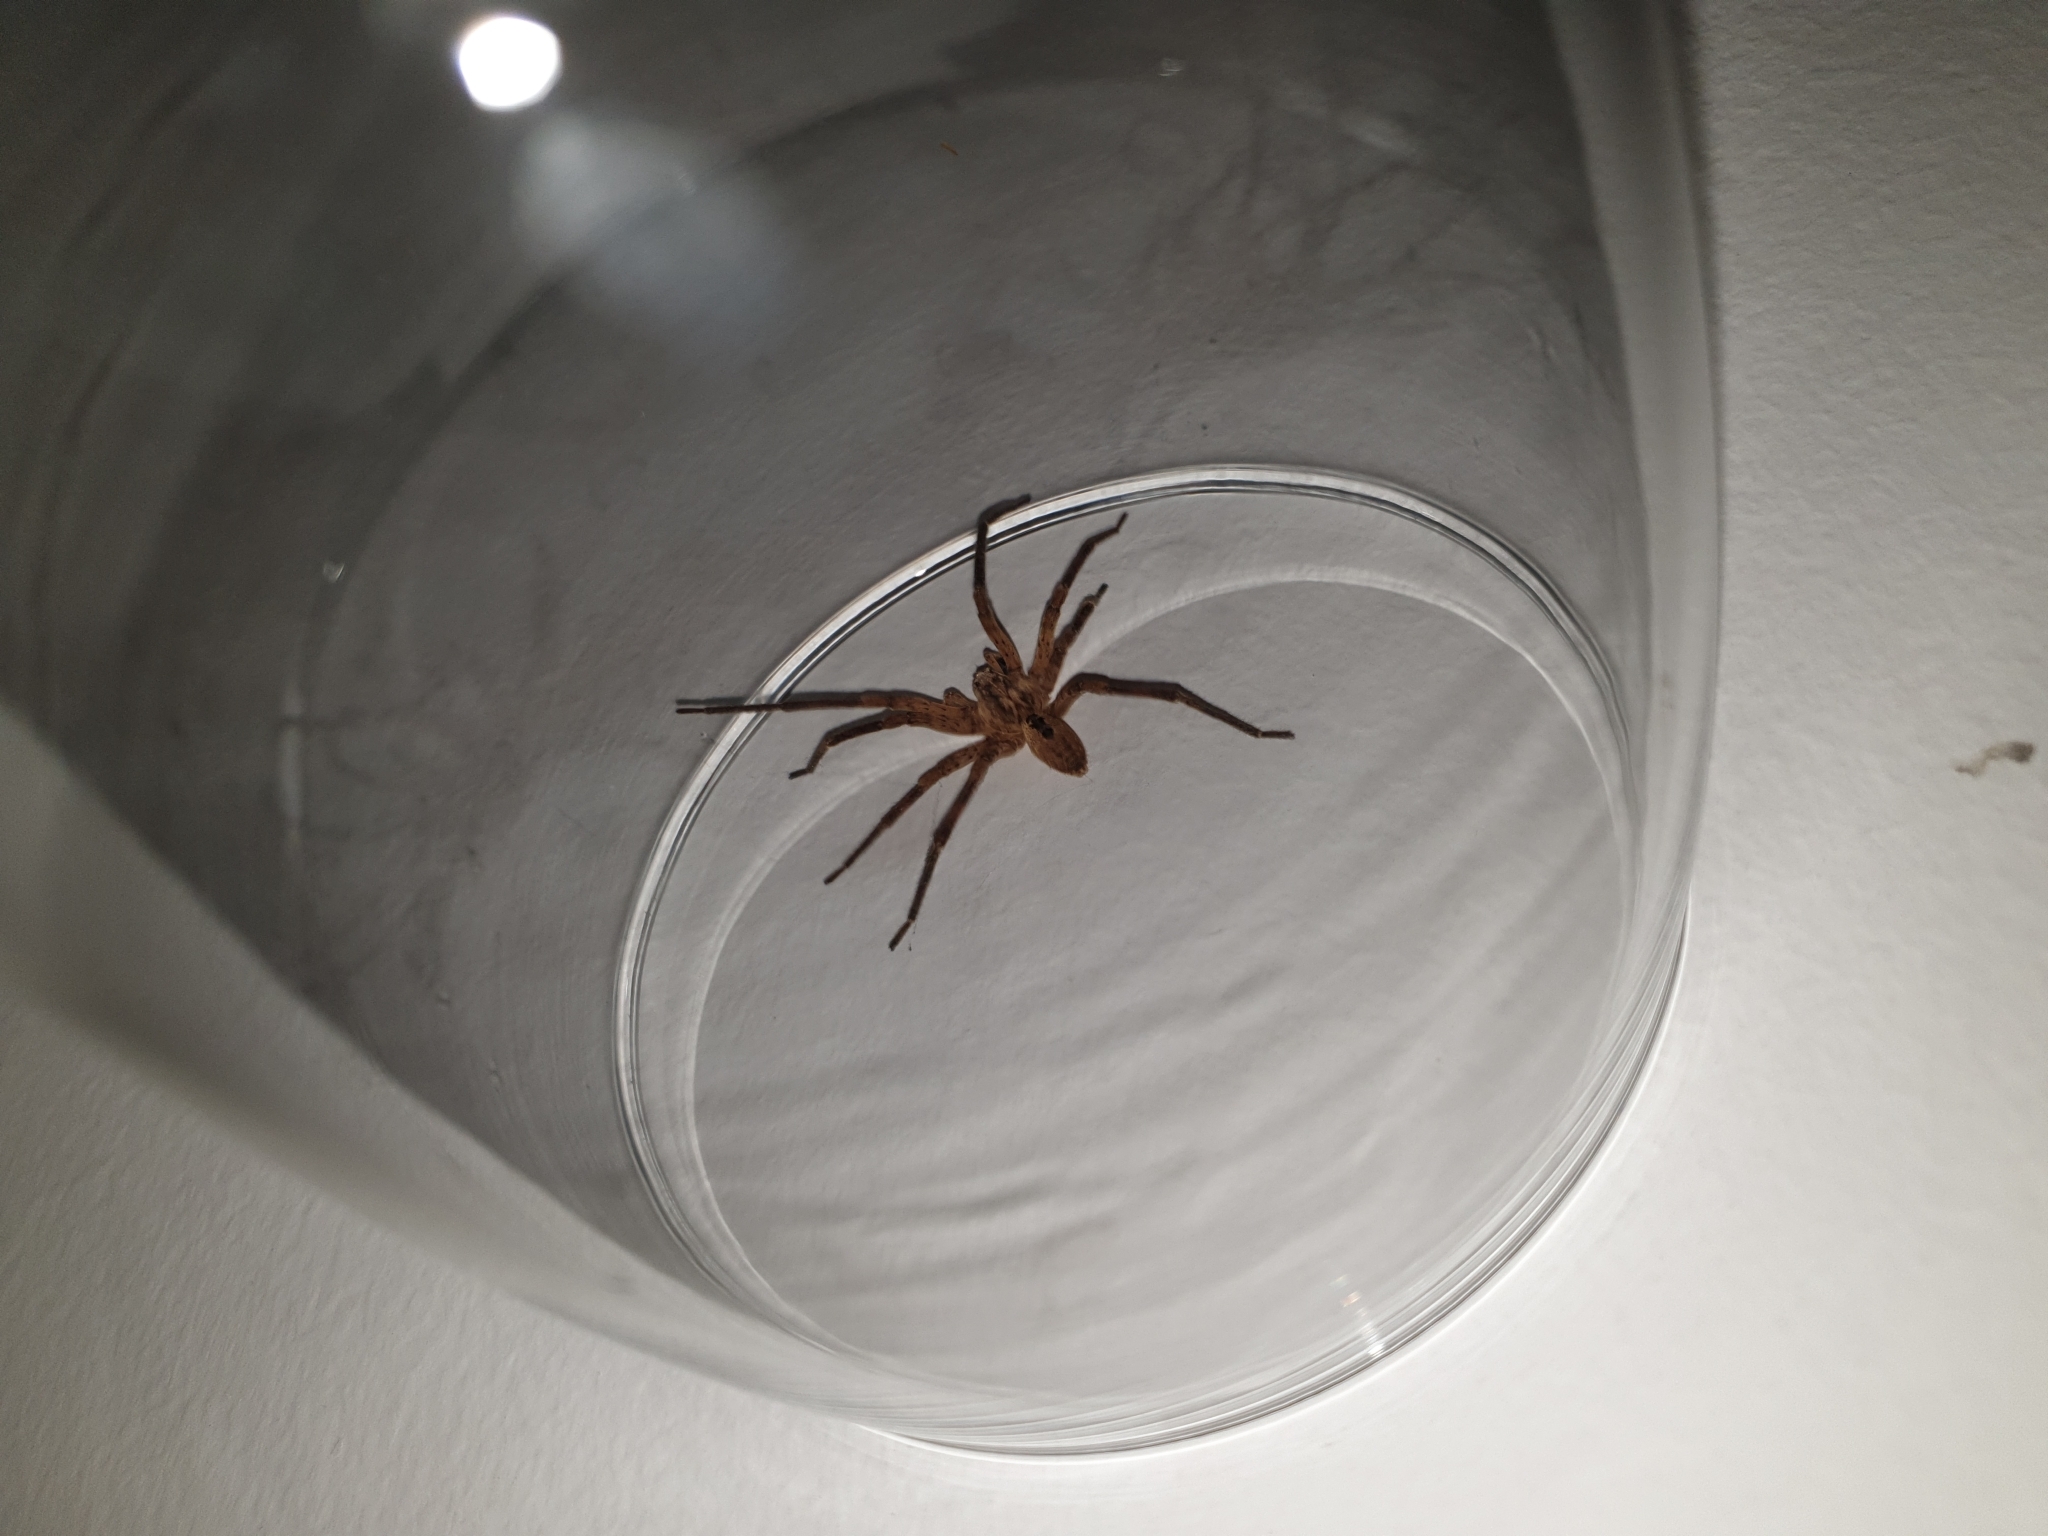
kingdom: Animalia
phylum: Arthropoda
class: Arachnida
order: Araneae
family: Zoropsidae
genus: Zoropsis
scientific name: Zoropsis spinimana
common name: Zoropsid spider
